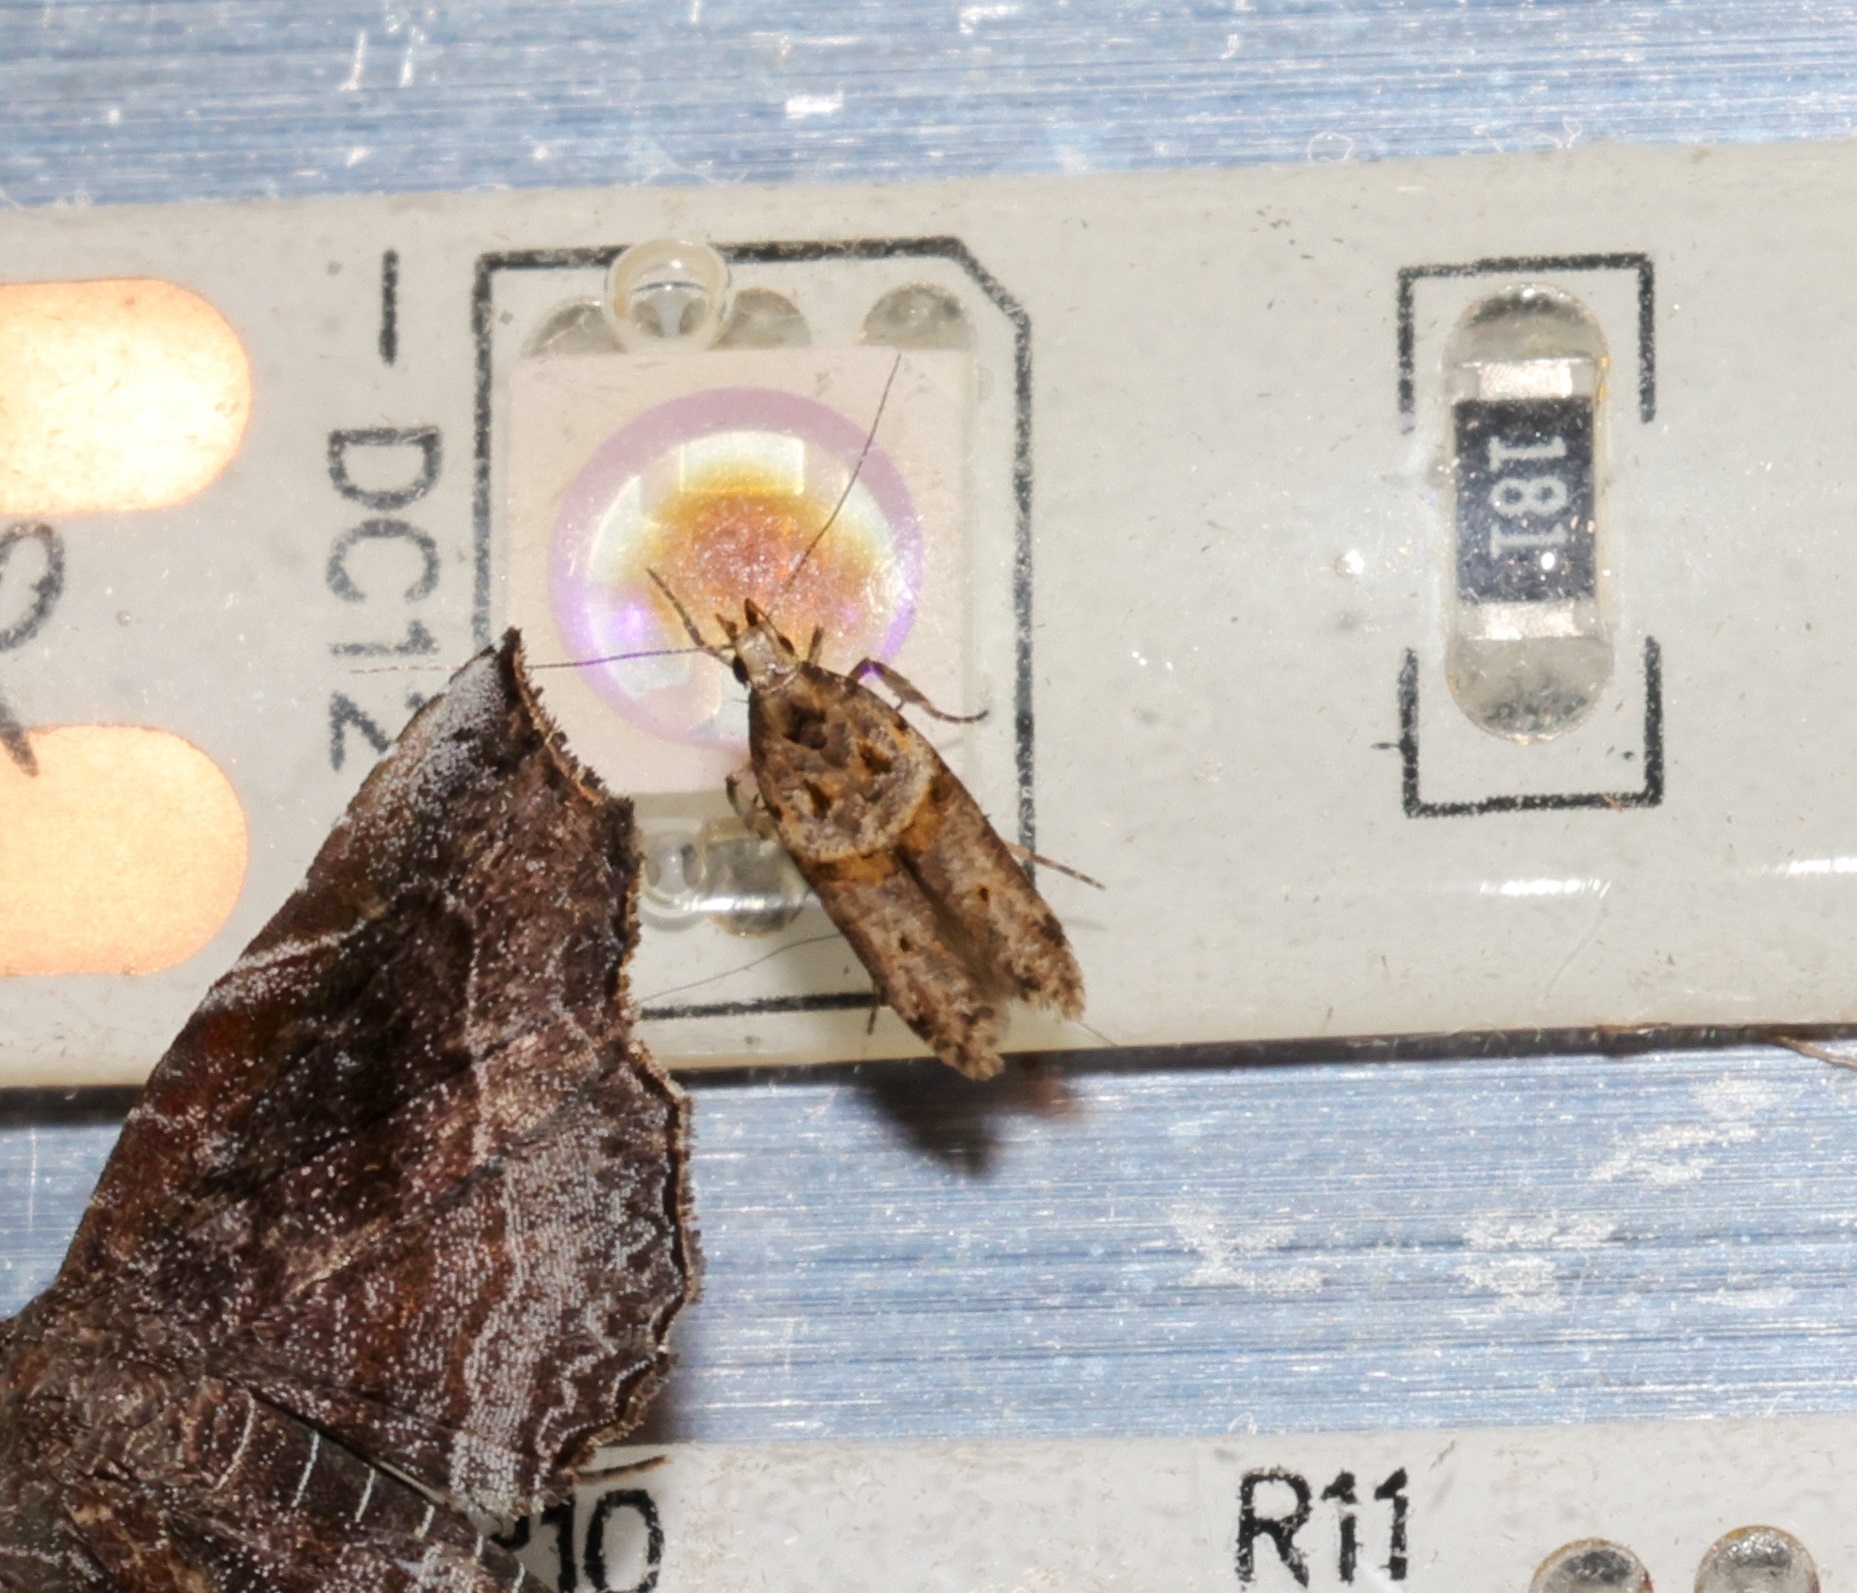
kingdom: Animalia
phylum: Arthropoda
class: Insecta
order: Lepidoptera
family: Gelechiidae
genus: Deltophora
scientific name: Deltophora polliniferens
